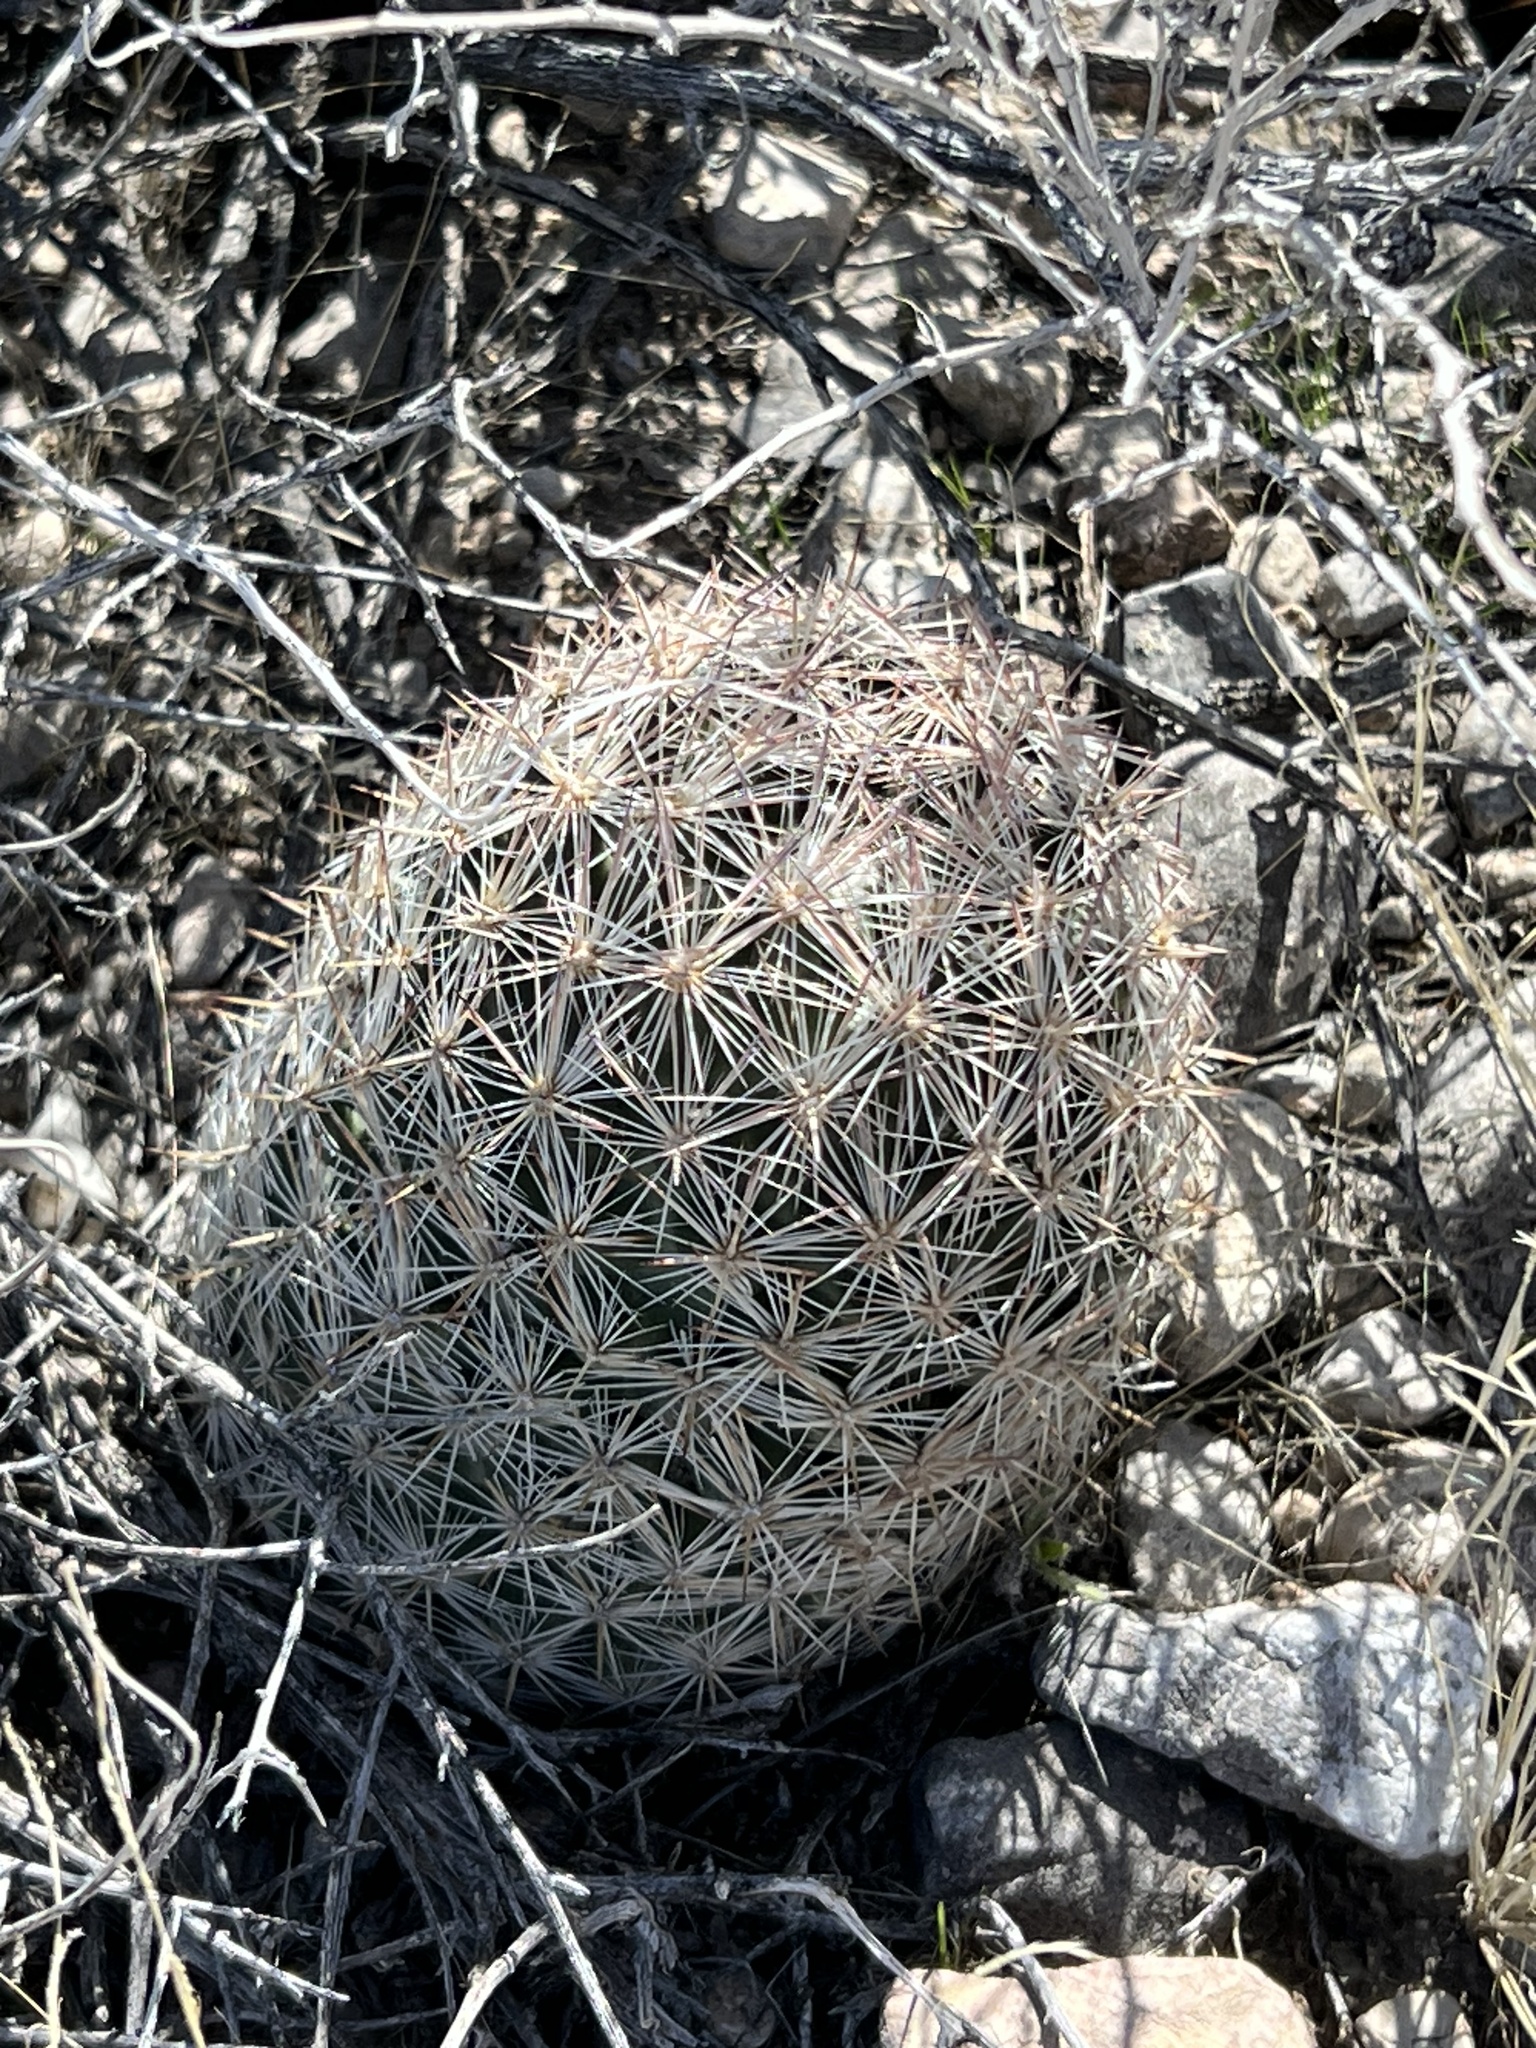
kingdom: Plantae
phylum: Tracheophyta
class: Magnoliopsida
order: Caryophyllales
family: Cactaceae
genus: Pelecyphora
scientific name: Pelecyphora dasyacantha
